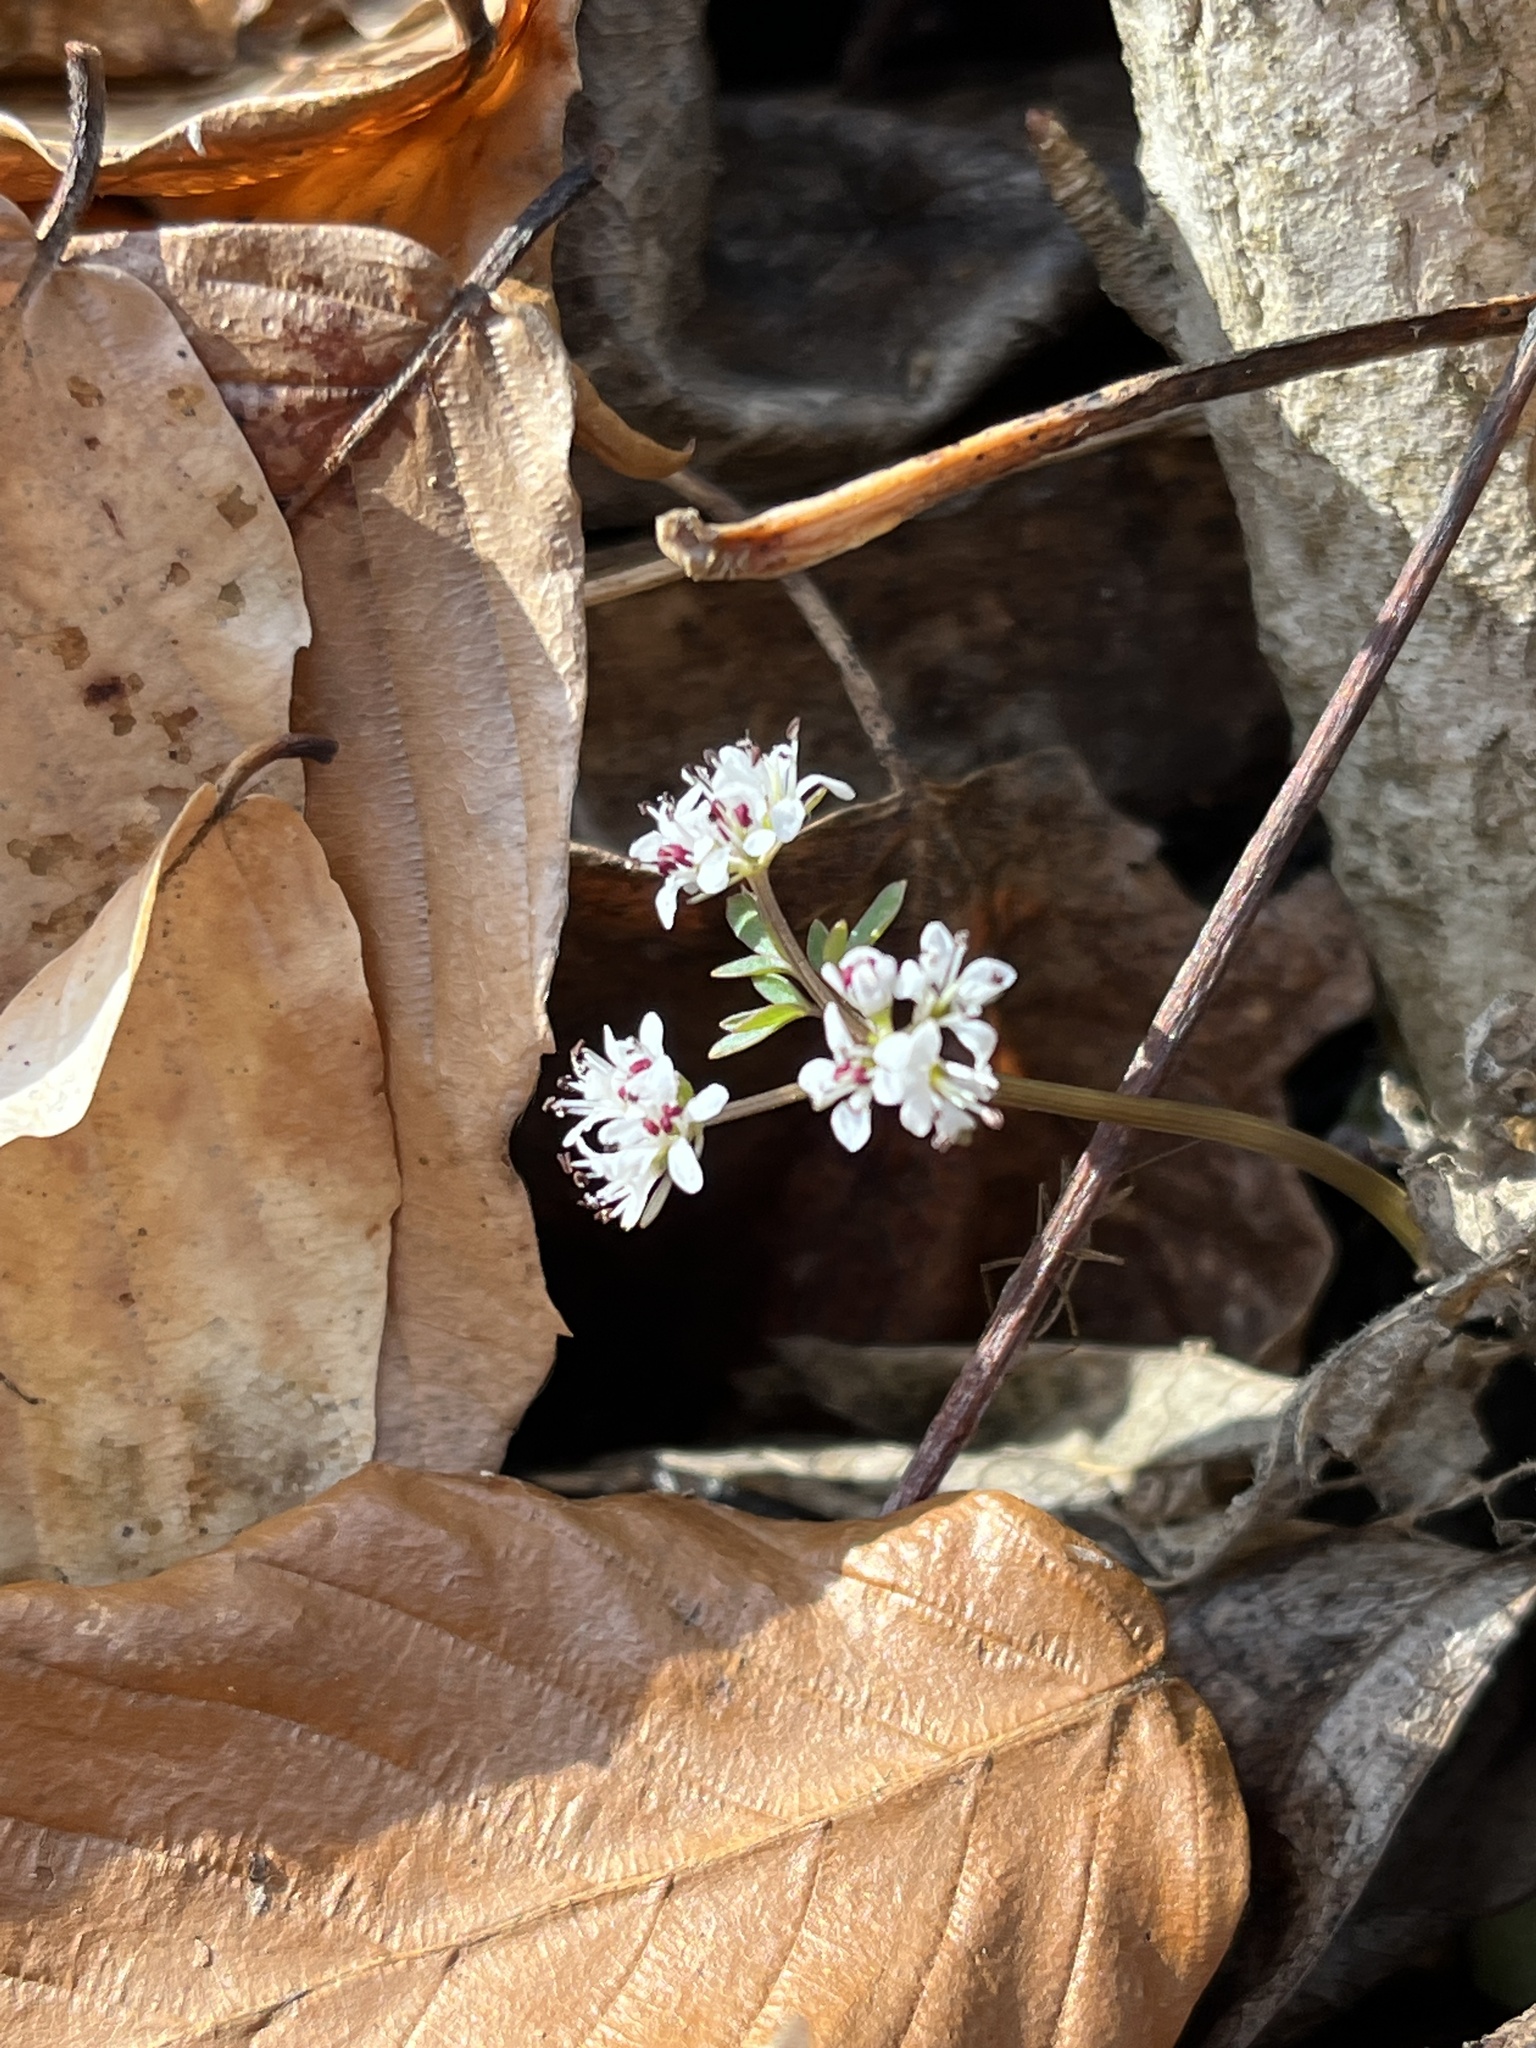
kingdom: Plantae
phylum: Tracheophyta
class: Magnoliopsida
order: Apiales
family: Apiaceae
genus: Erigenia
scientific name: Erigenia bulbosa
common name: Pepper-and-salt
